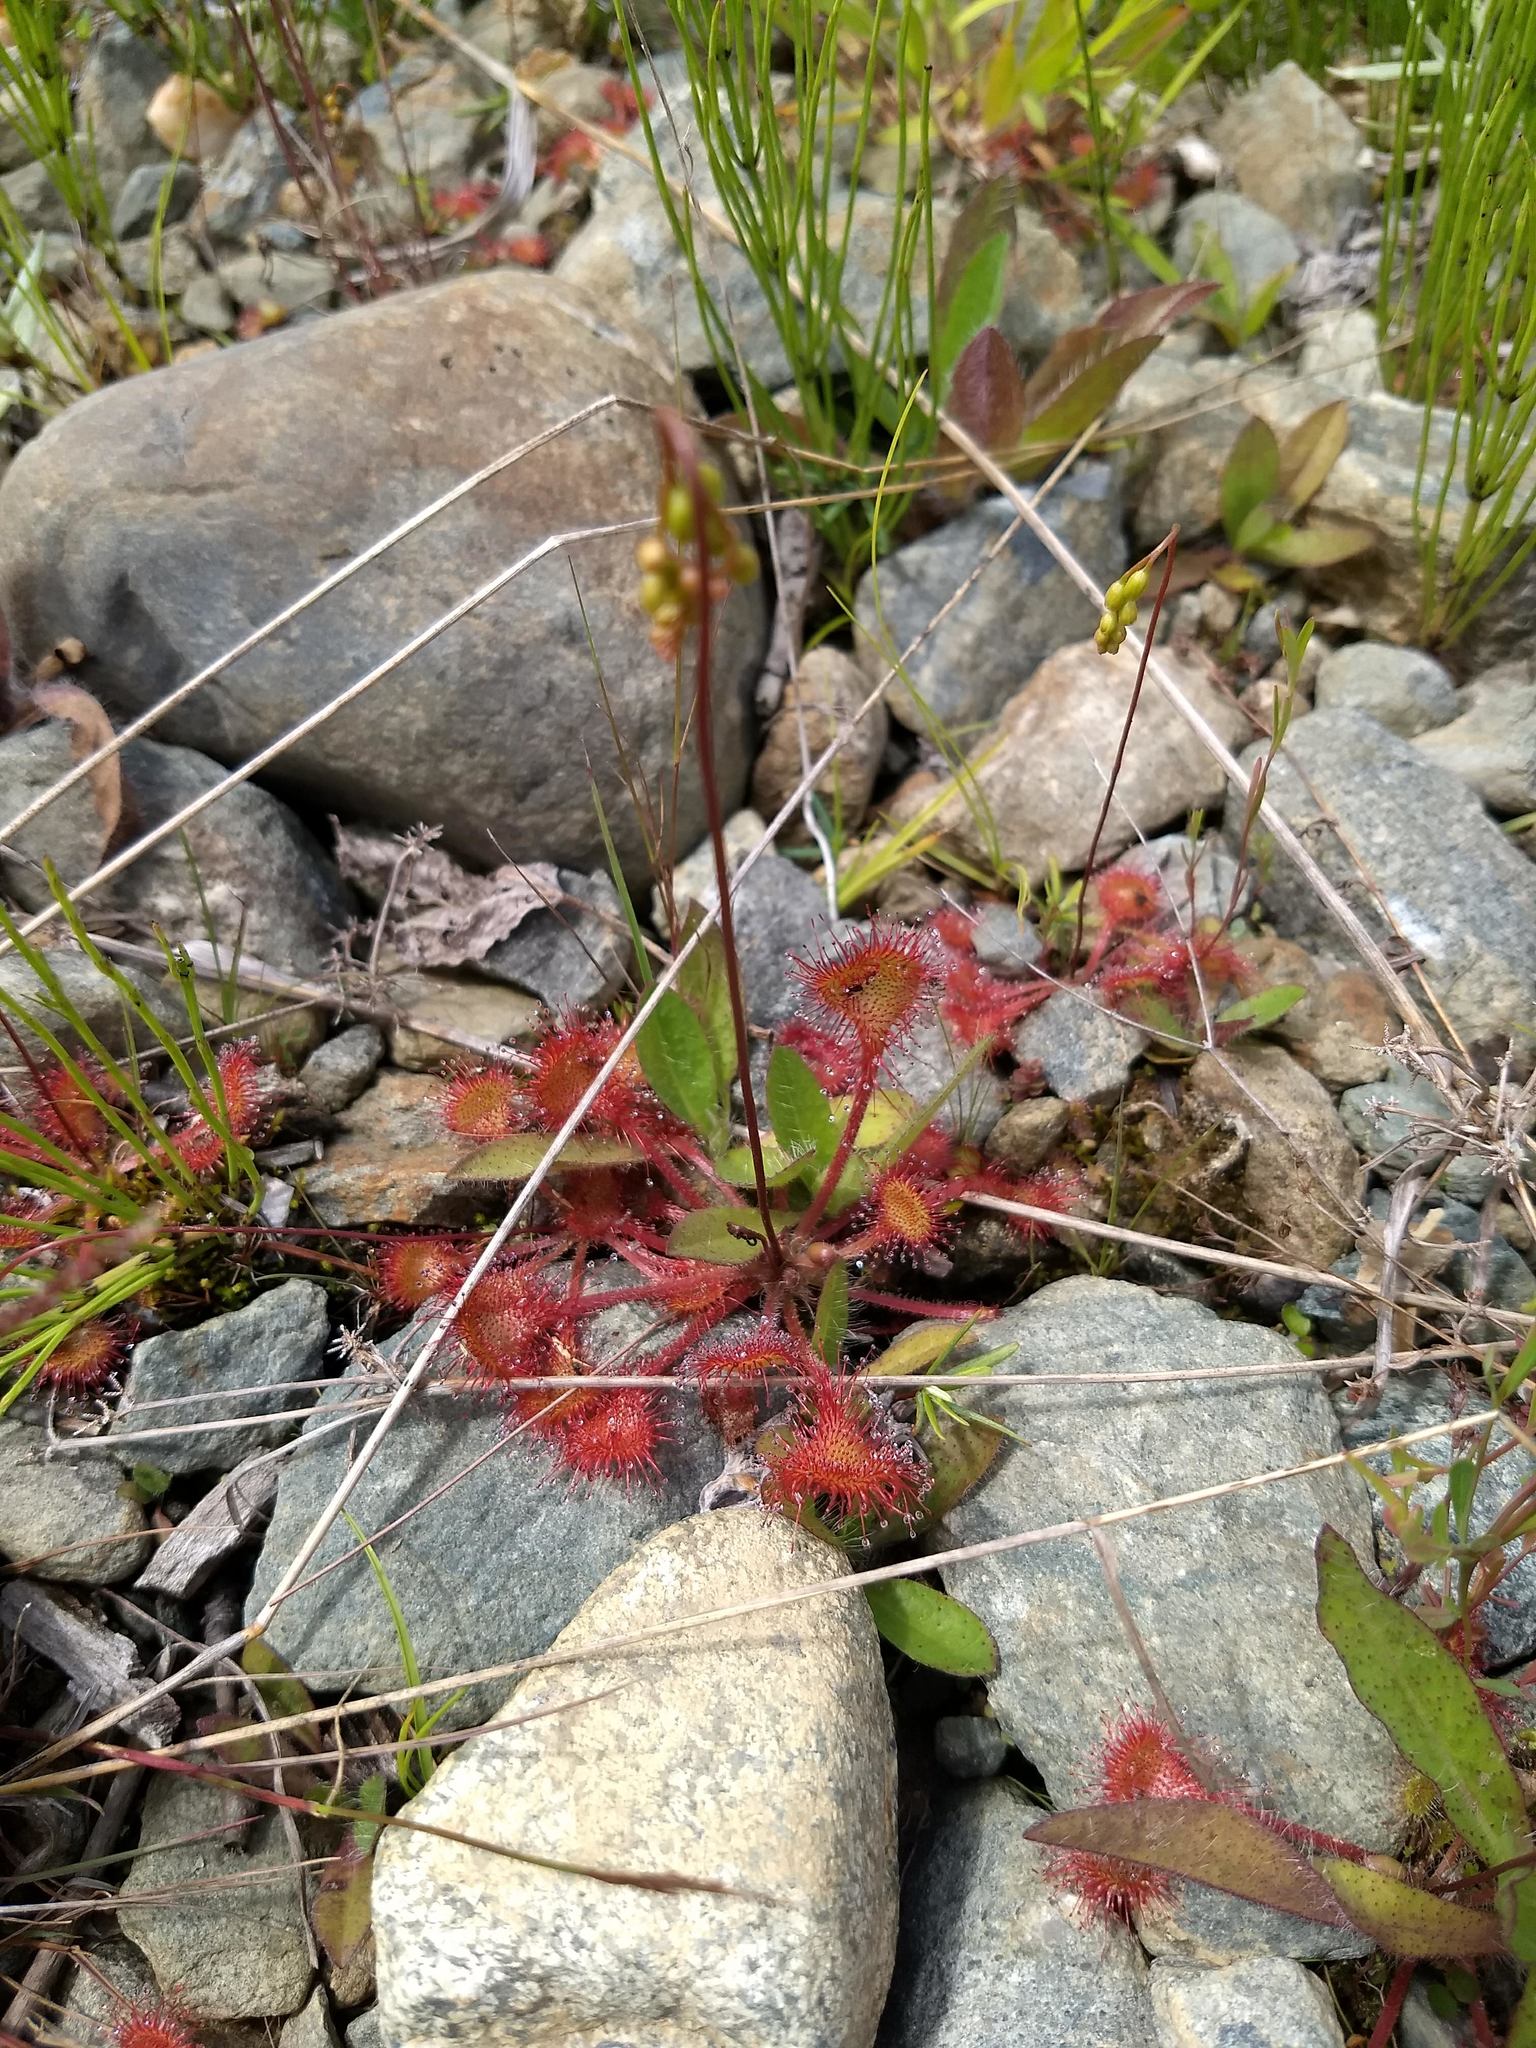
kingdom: Plantae
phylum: Tracheophyta
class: Magnoliopsida
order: Caryophyllales
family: Droseraceae
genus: Drosera
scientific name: Drosera rotundifolia
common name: Round-leaved sundew
